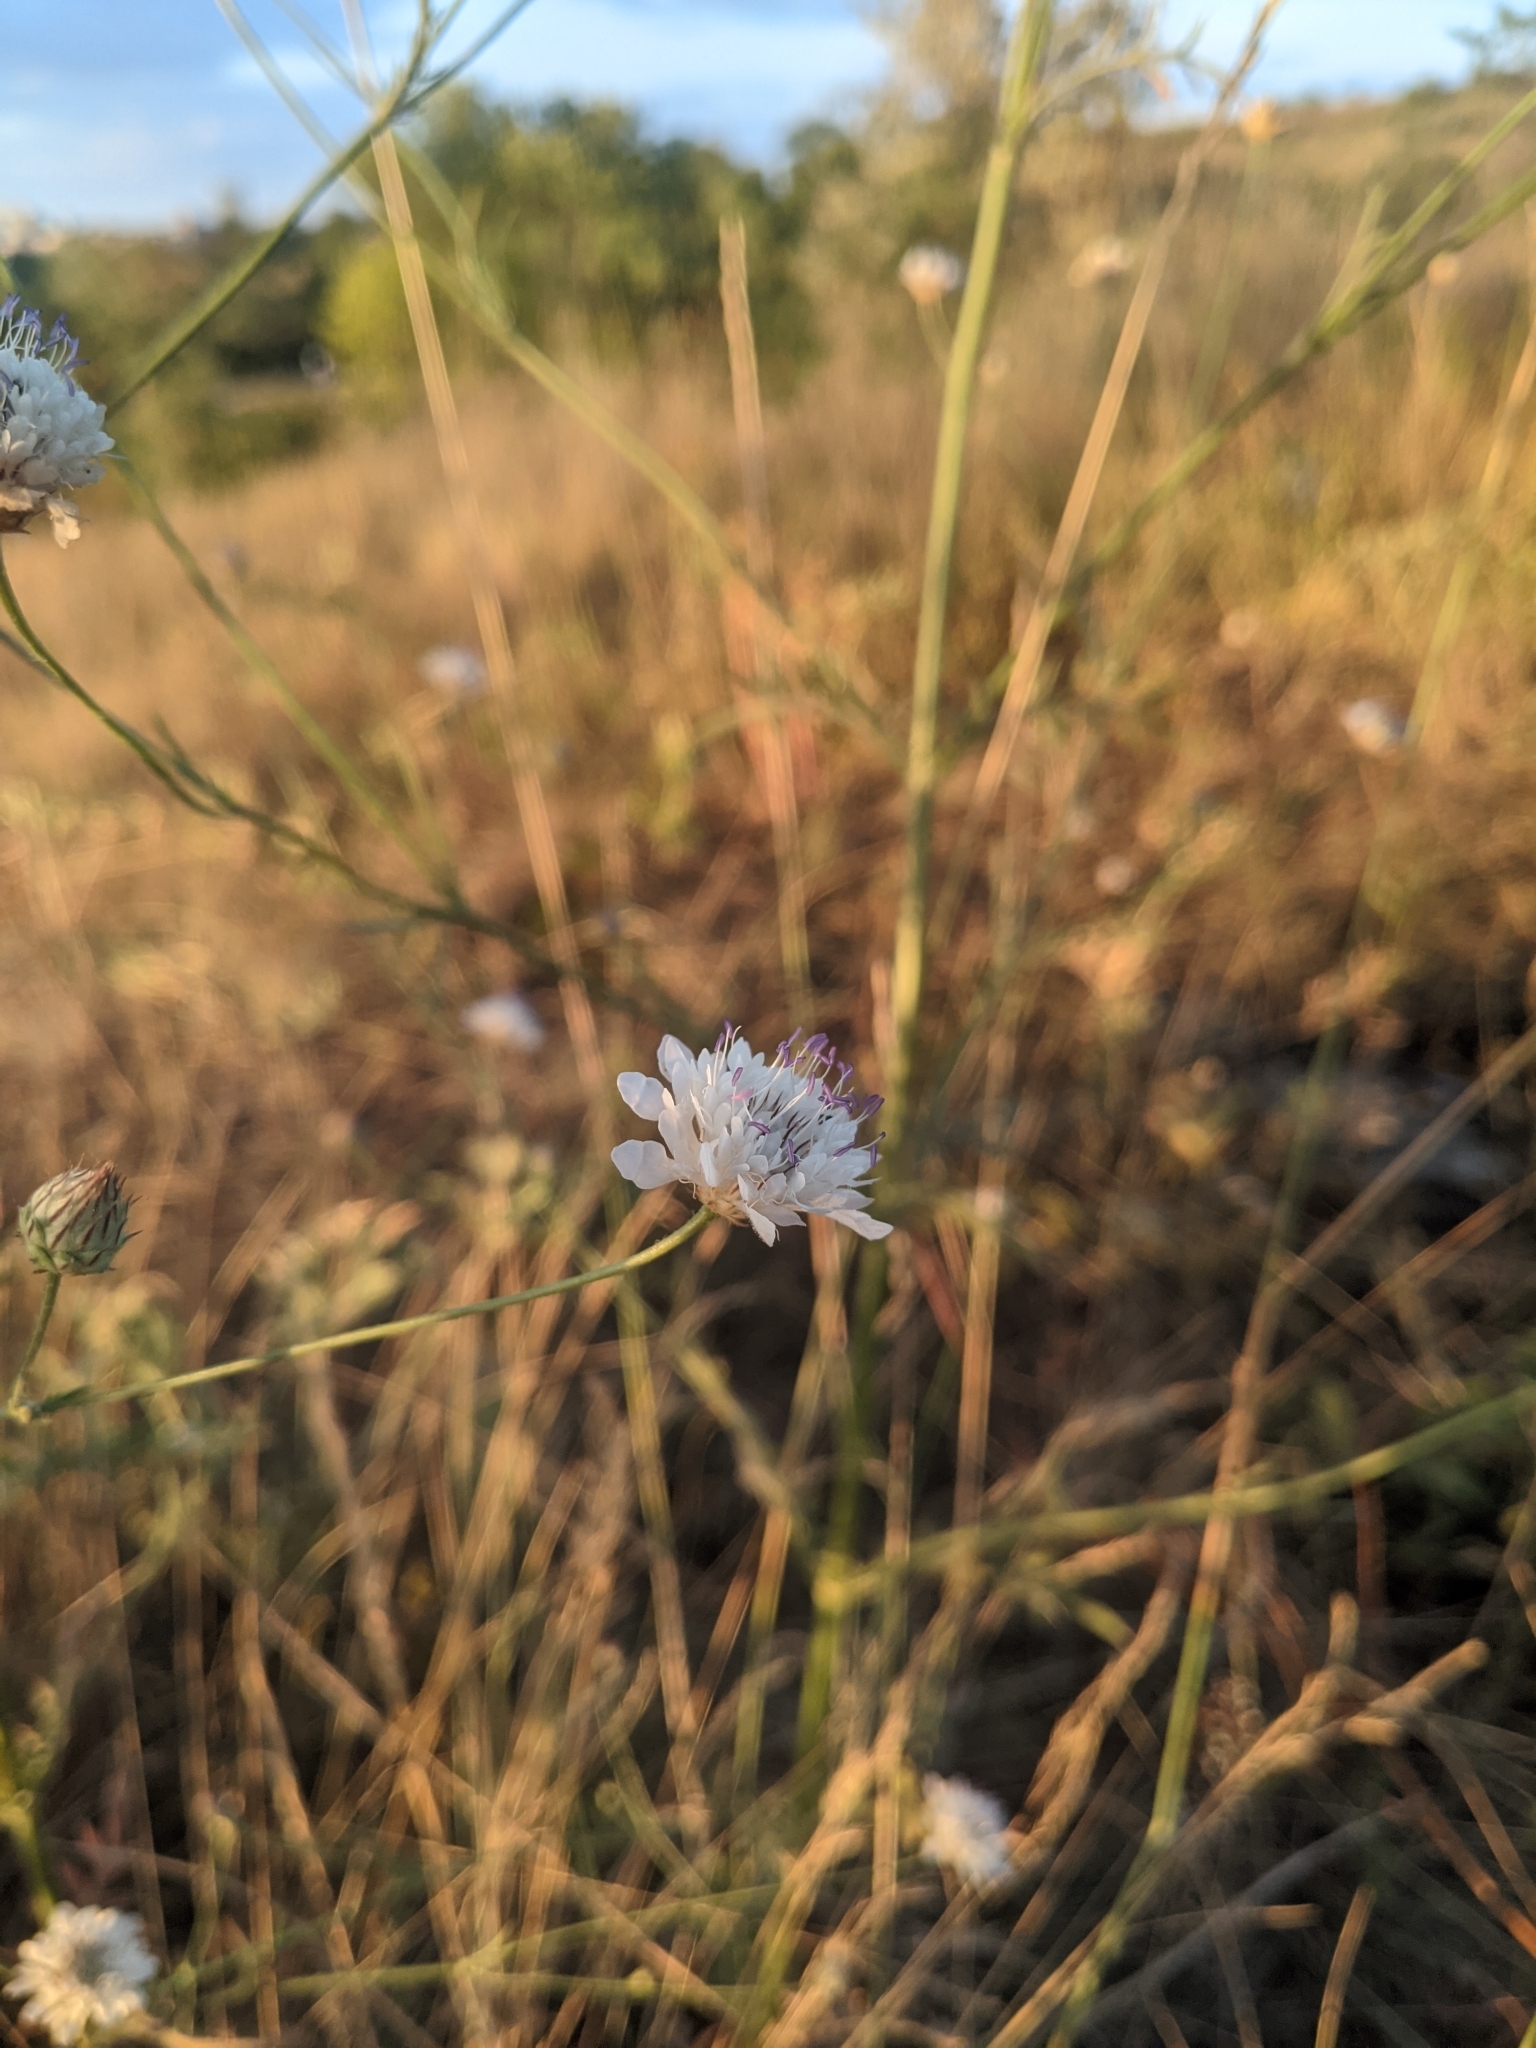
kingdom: Plantae
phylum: Tracheophyta
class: Magnoliopsida
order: Dipsacales
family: Caprifoliaceae
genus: Cephalaria
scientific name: Cephalaria transsylvanica
